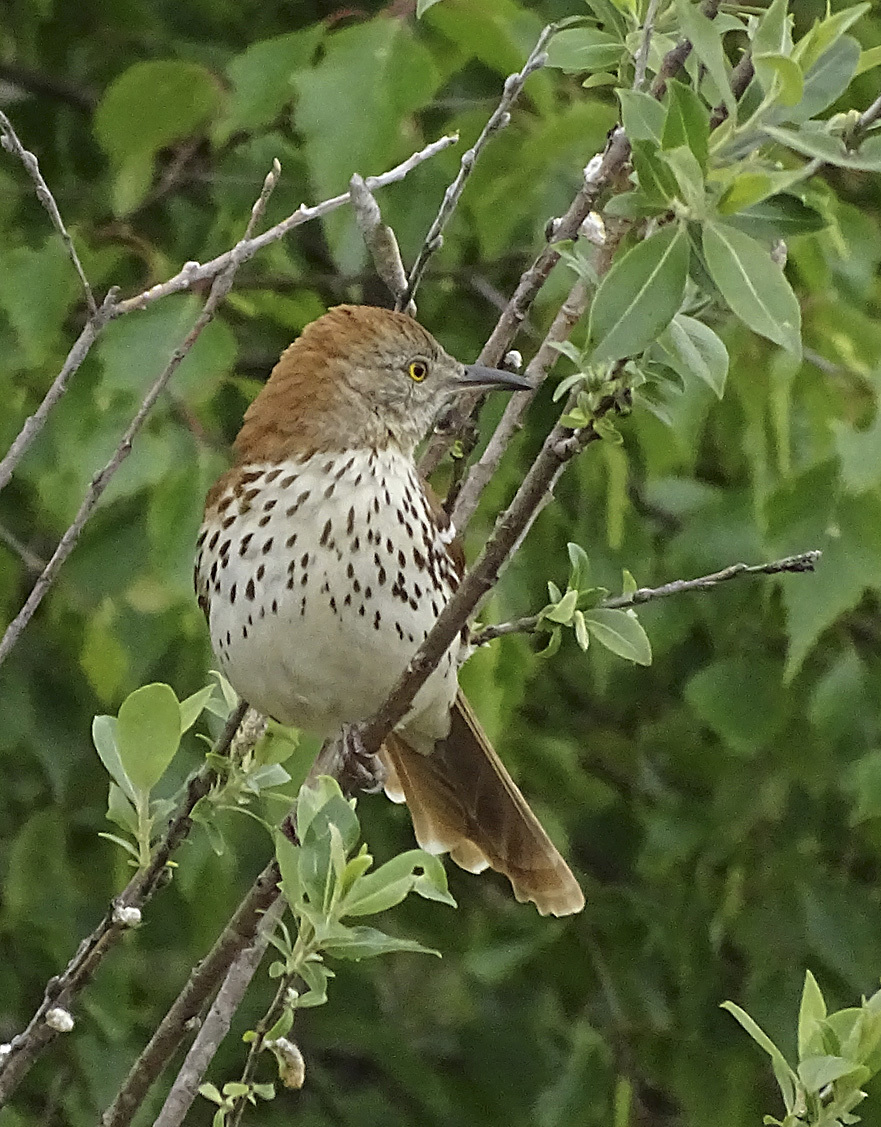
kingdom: Animalia
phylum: Chordata
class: Aves
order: Passeriformes
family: Mimidae
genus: Toxostoma
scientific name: Toxostoma rufum
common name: Brown thrasher
